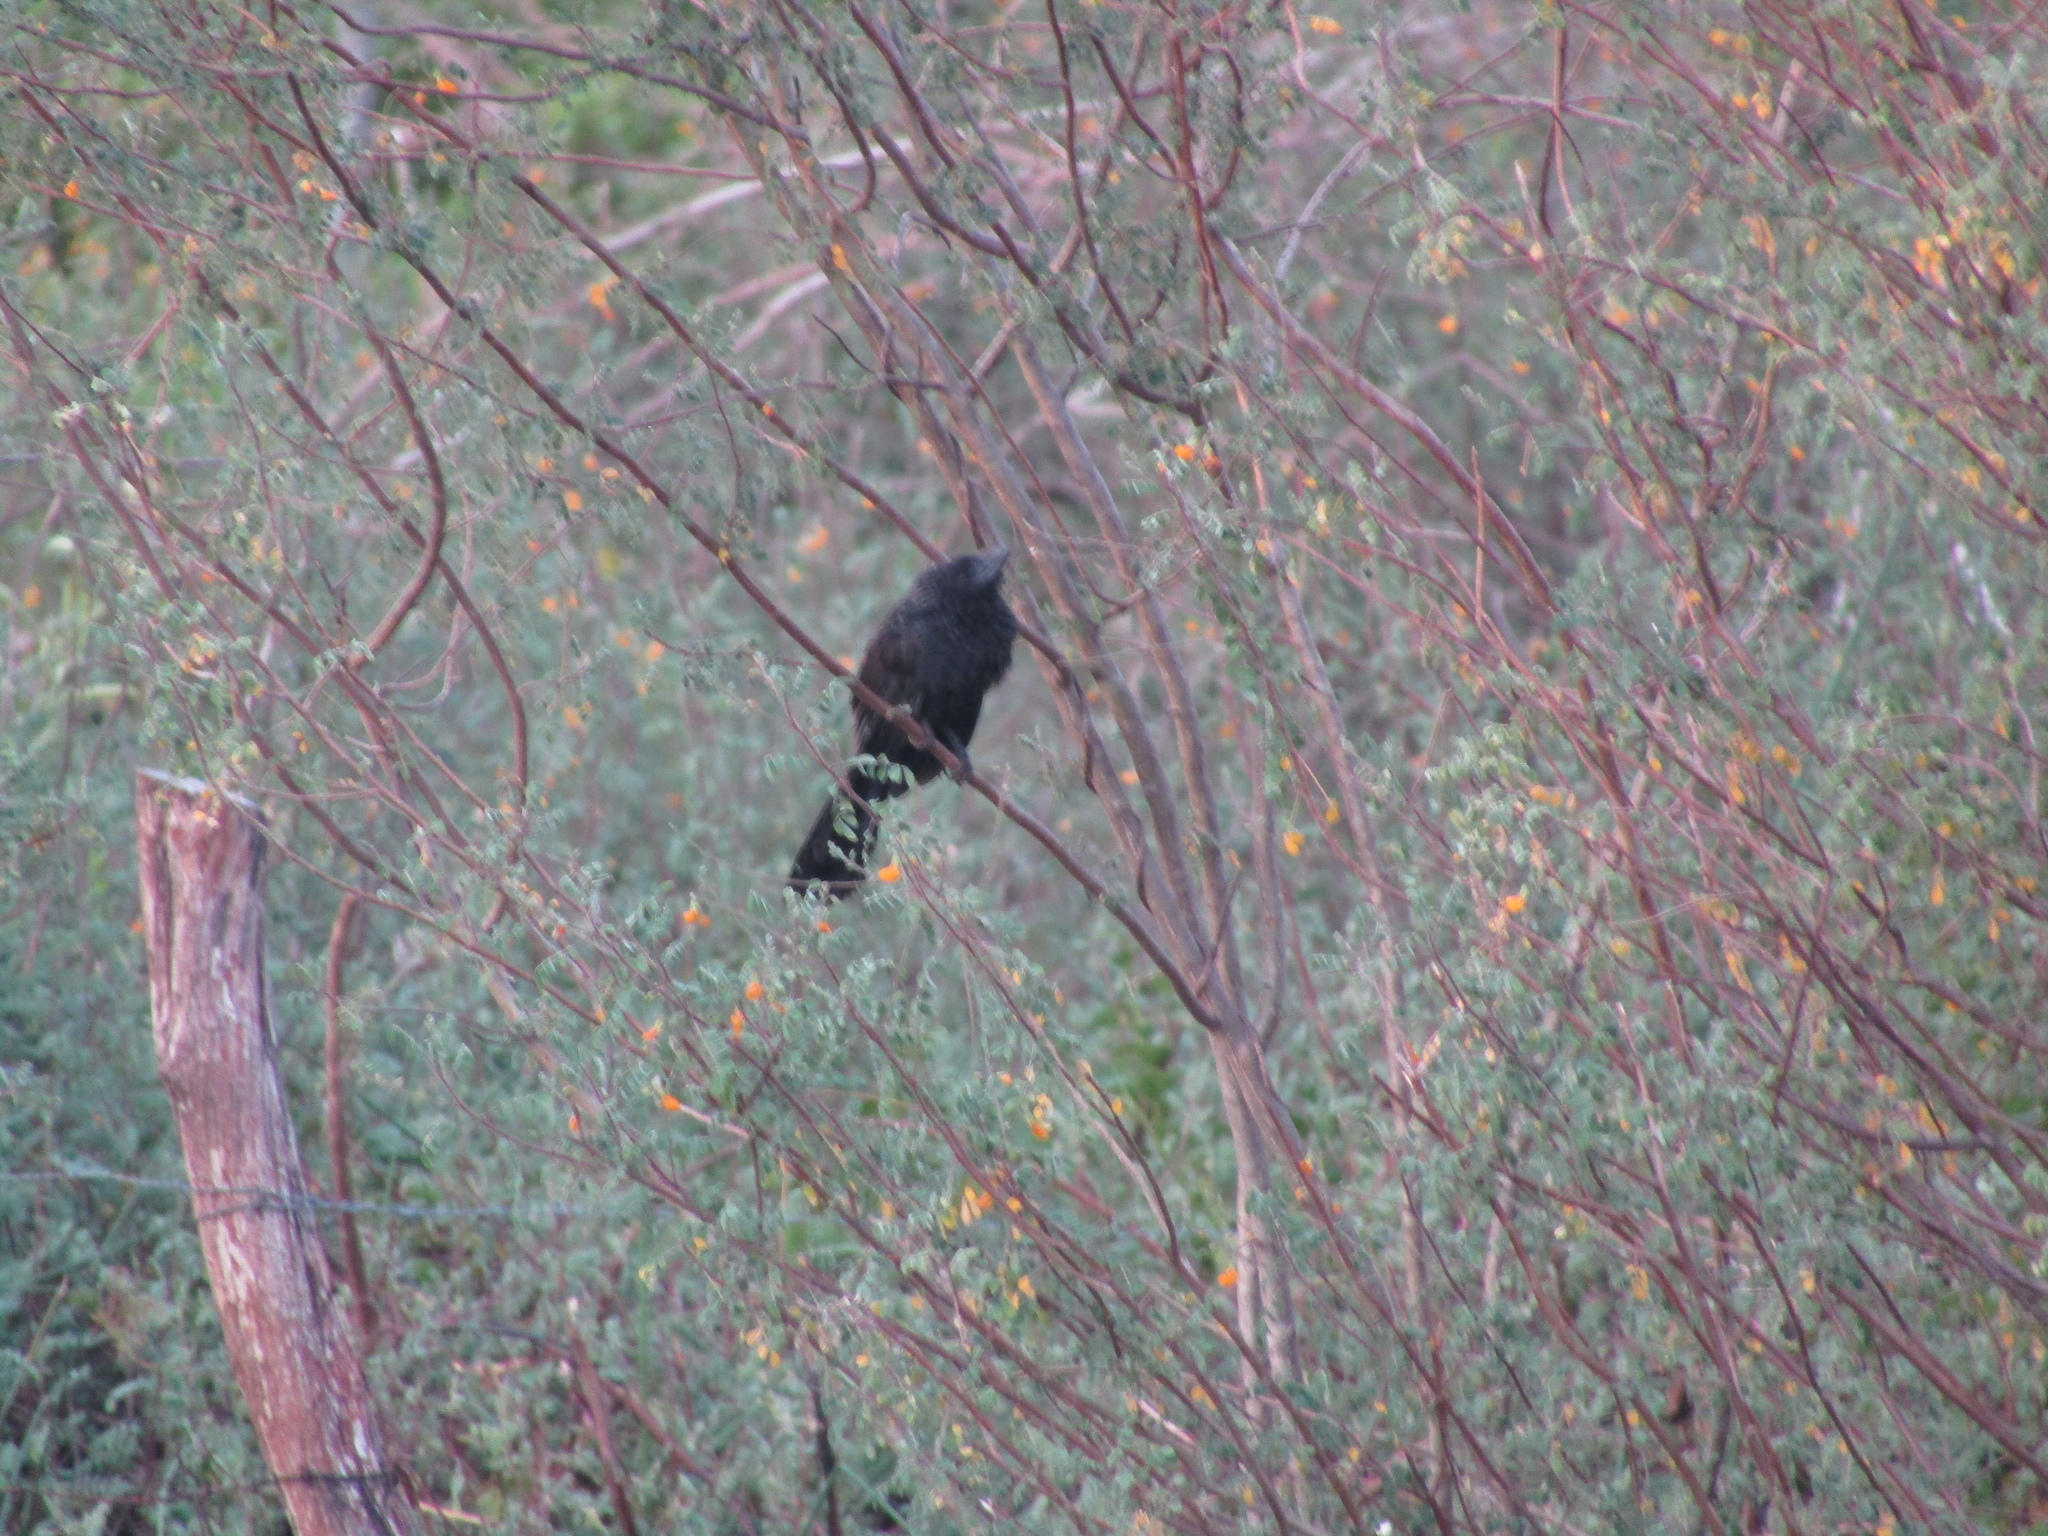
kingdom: Animalia
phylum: Chordata
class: Aves
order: Cuculiformes
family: Cuculidae
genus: Crotophaga
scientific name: Crotophaga ani
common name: Smooth-billed ani
